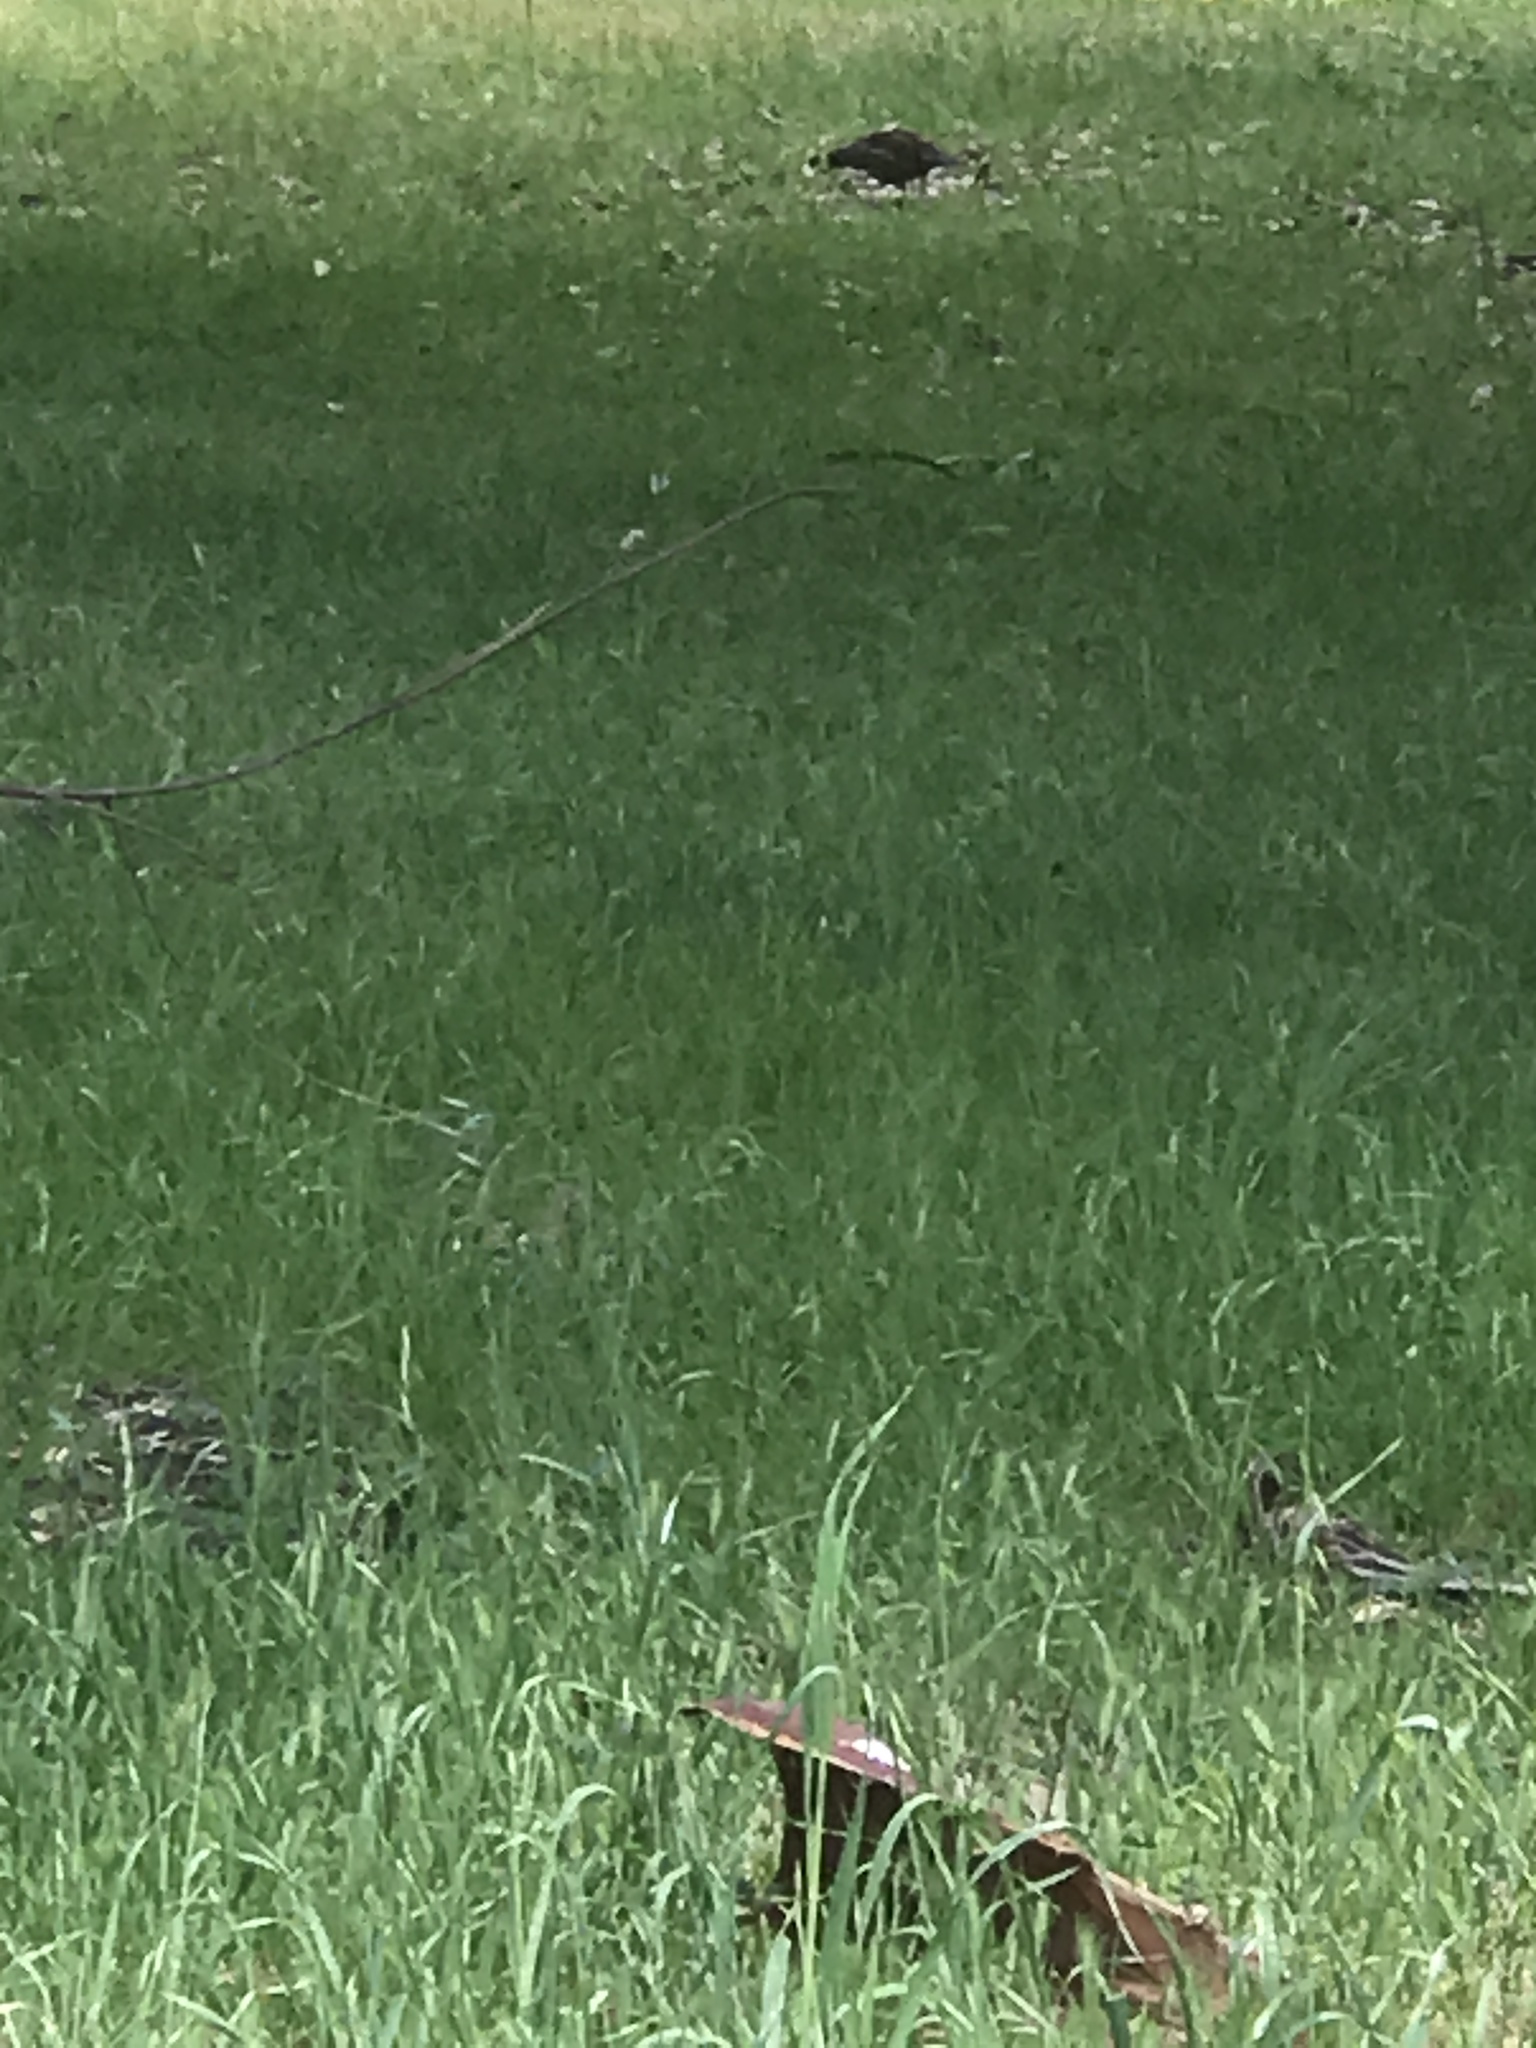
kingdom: Animalia
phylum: Chordata
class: Aves
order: Galliformes
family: Odontophoridae
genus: Callipepla
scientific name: Callipepla californica
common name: California quail
